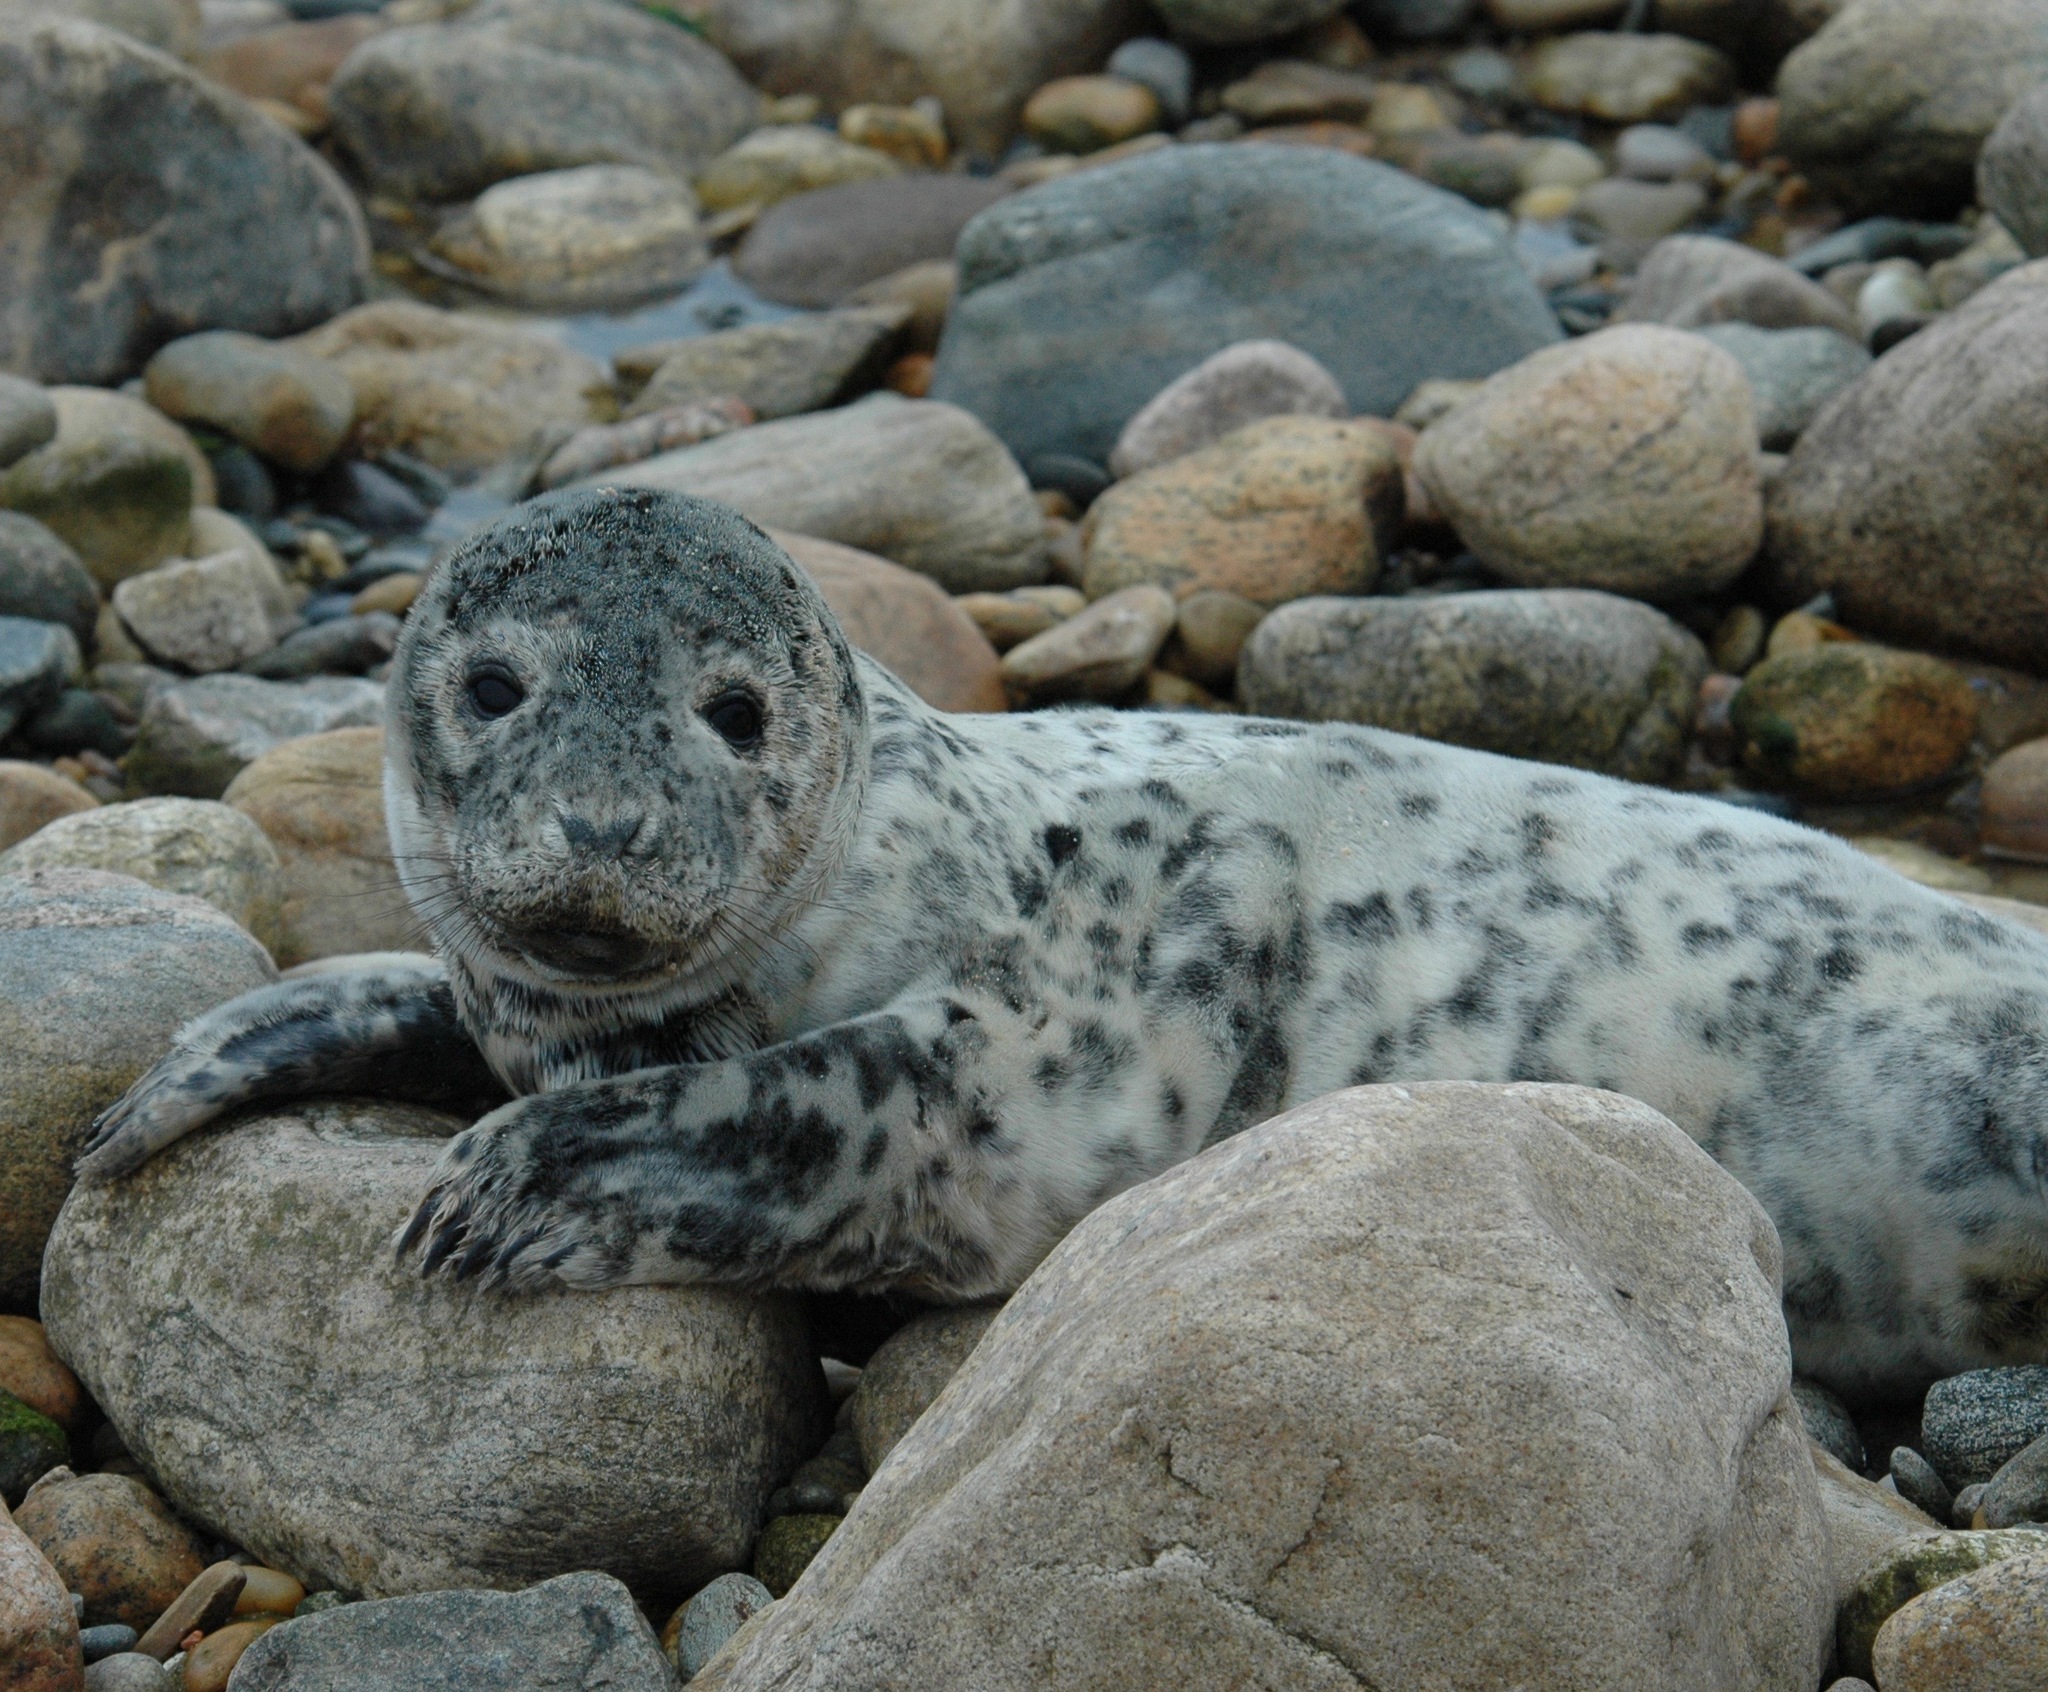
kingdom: Animalia
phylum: Chordata
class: Mammalia
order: Carnivora
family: Phocidae
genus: Halichoerus
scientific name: Halichoerus grypus
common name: Grey seal
